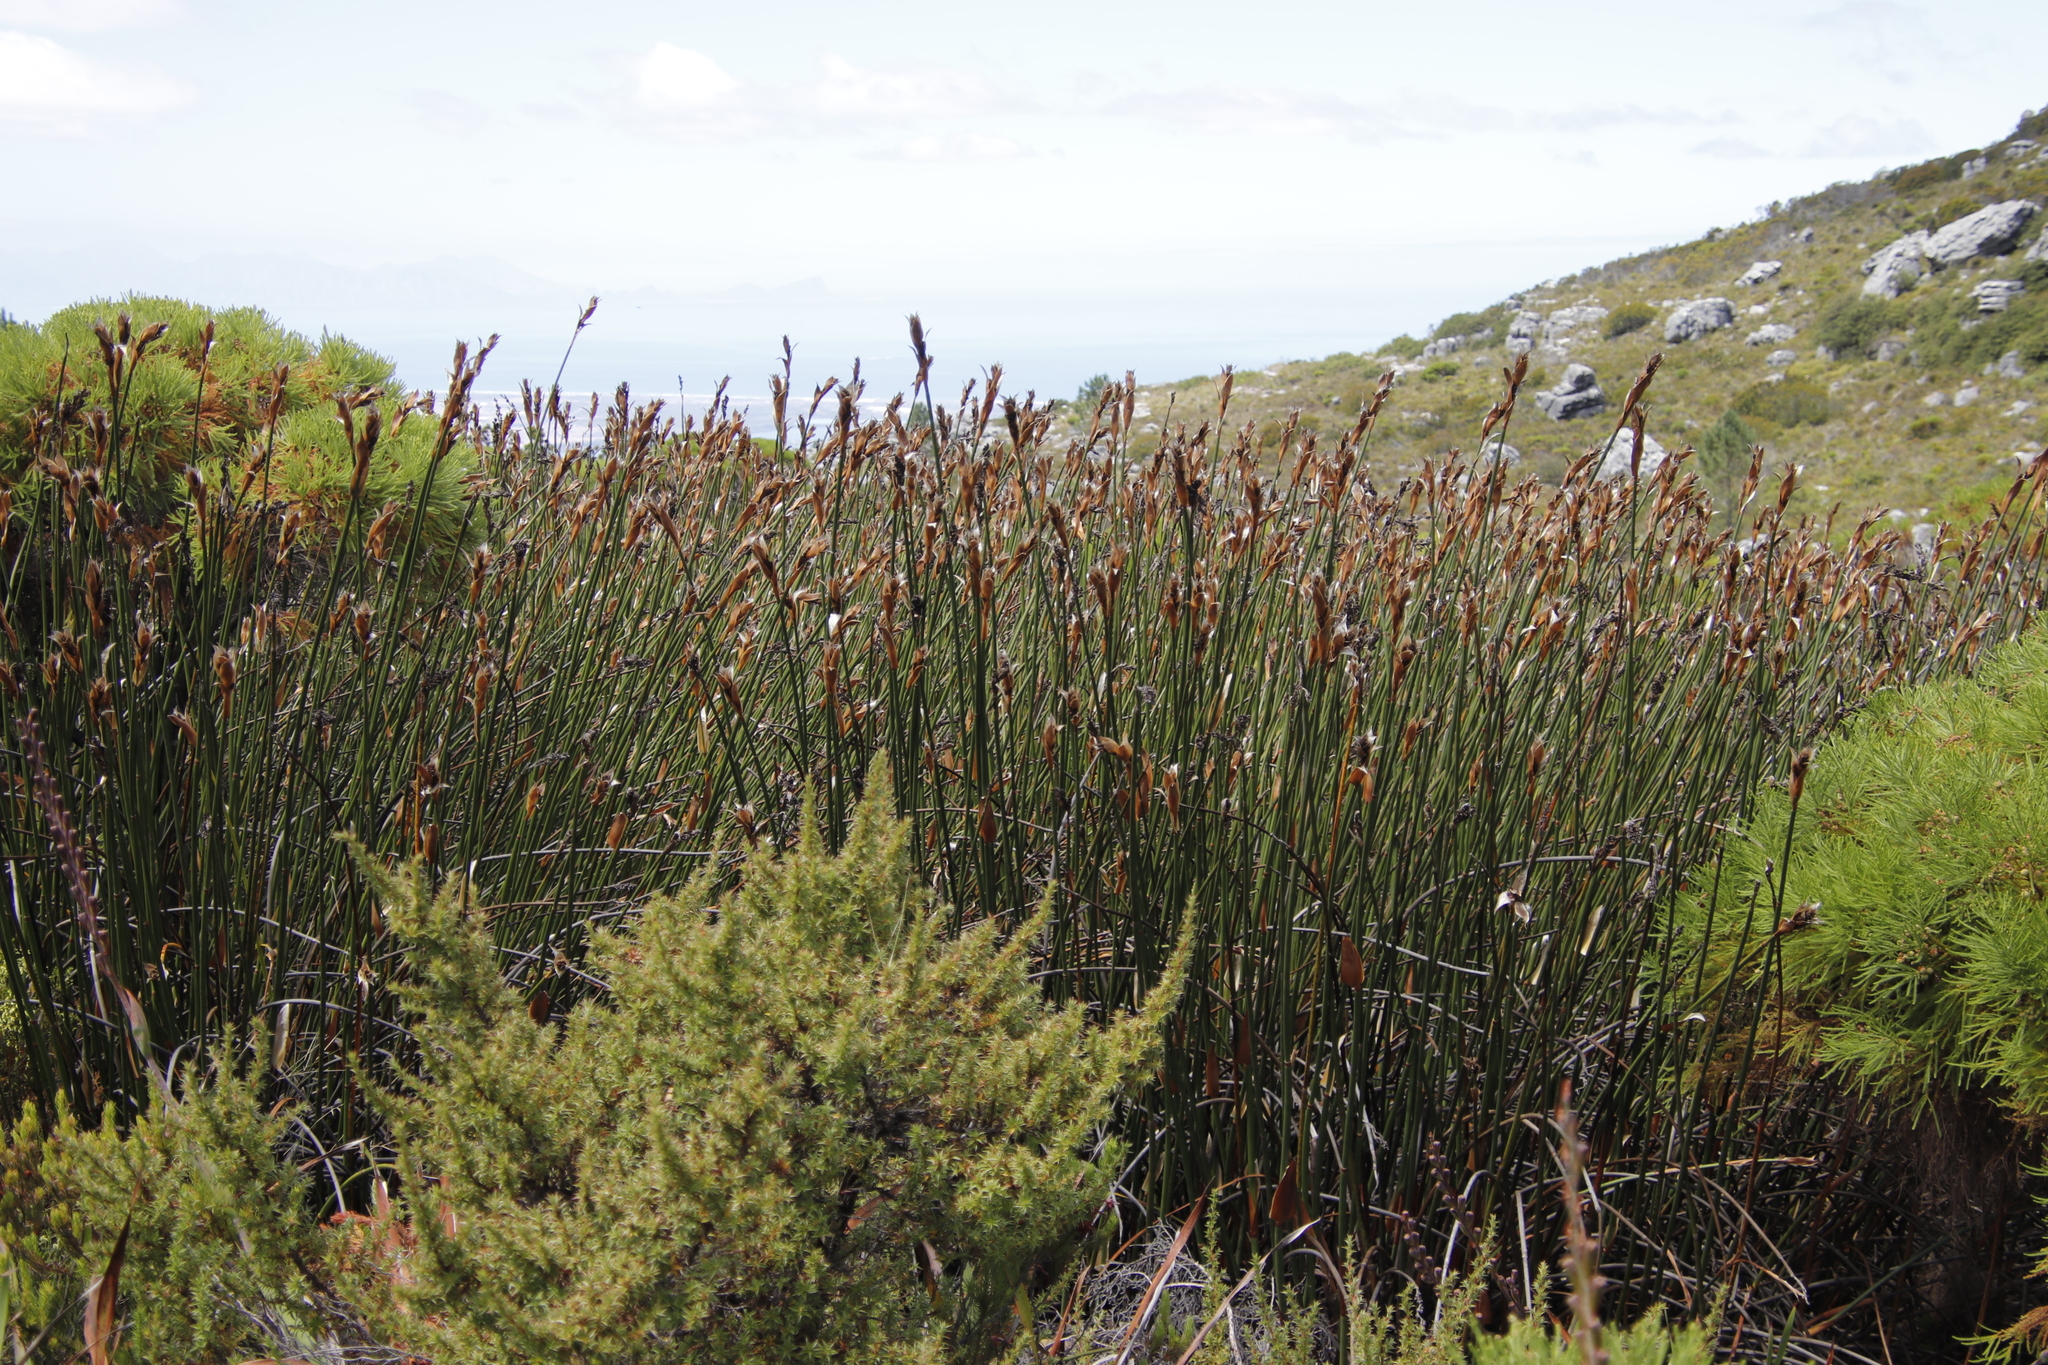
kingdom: Plantae
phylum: Tracheophyta
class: Liliopsida
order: Poales
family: Restionaceae
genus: Elegia
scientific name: Elegia mucronata
